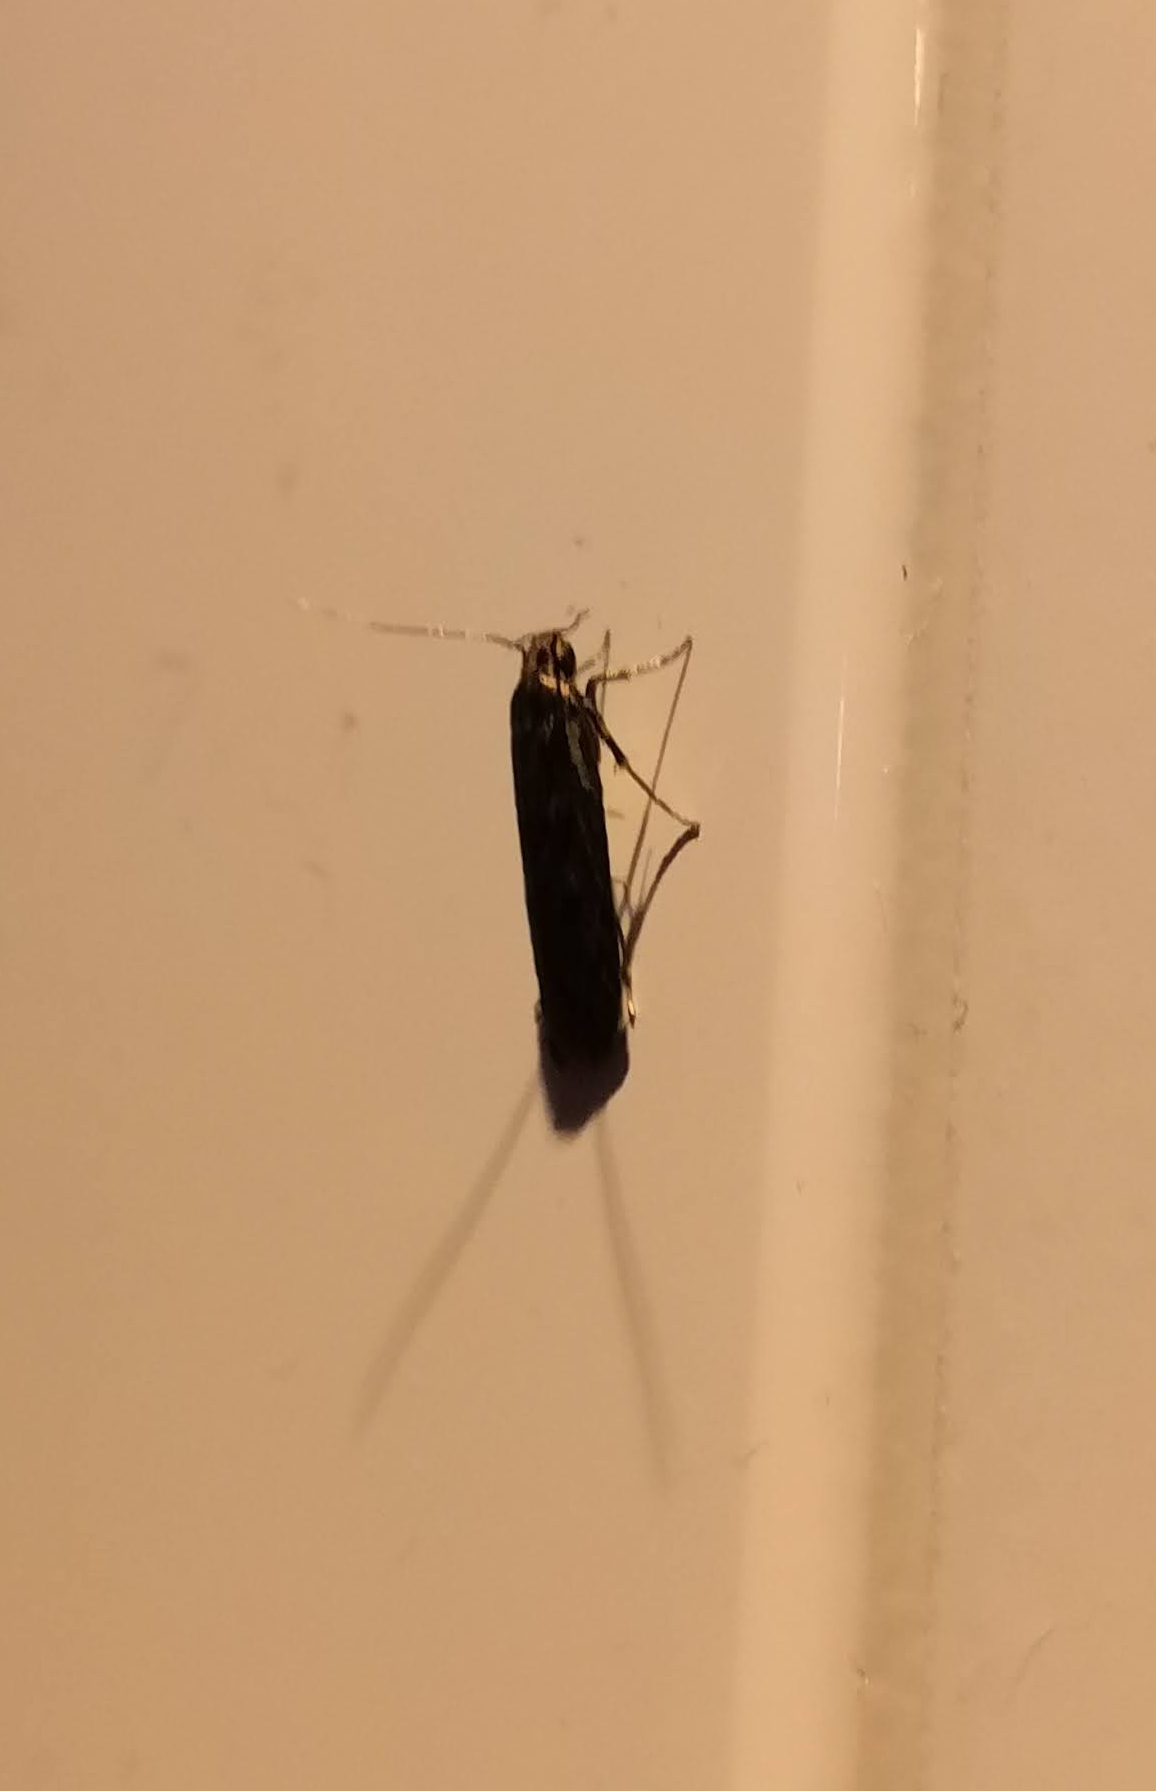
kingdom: Animalia
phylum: Arthropoda
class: Insecta
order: Lepidoptera
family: Oecophoridae
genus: Hofmannophila
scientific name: Hofmannophila pseudospretella
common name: Brown house moth
